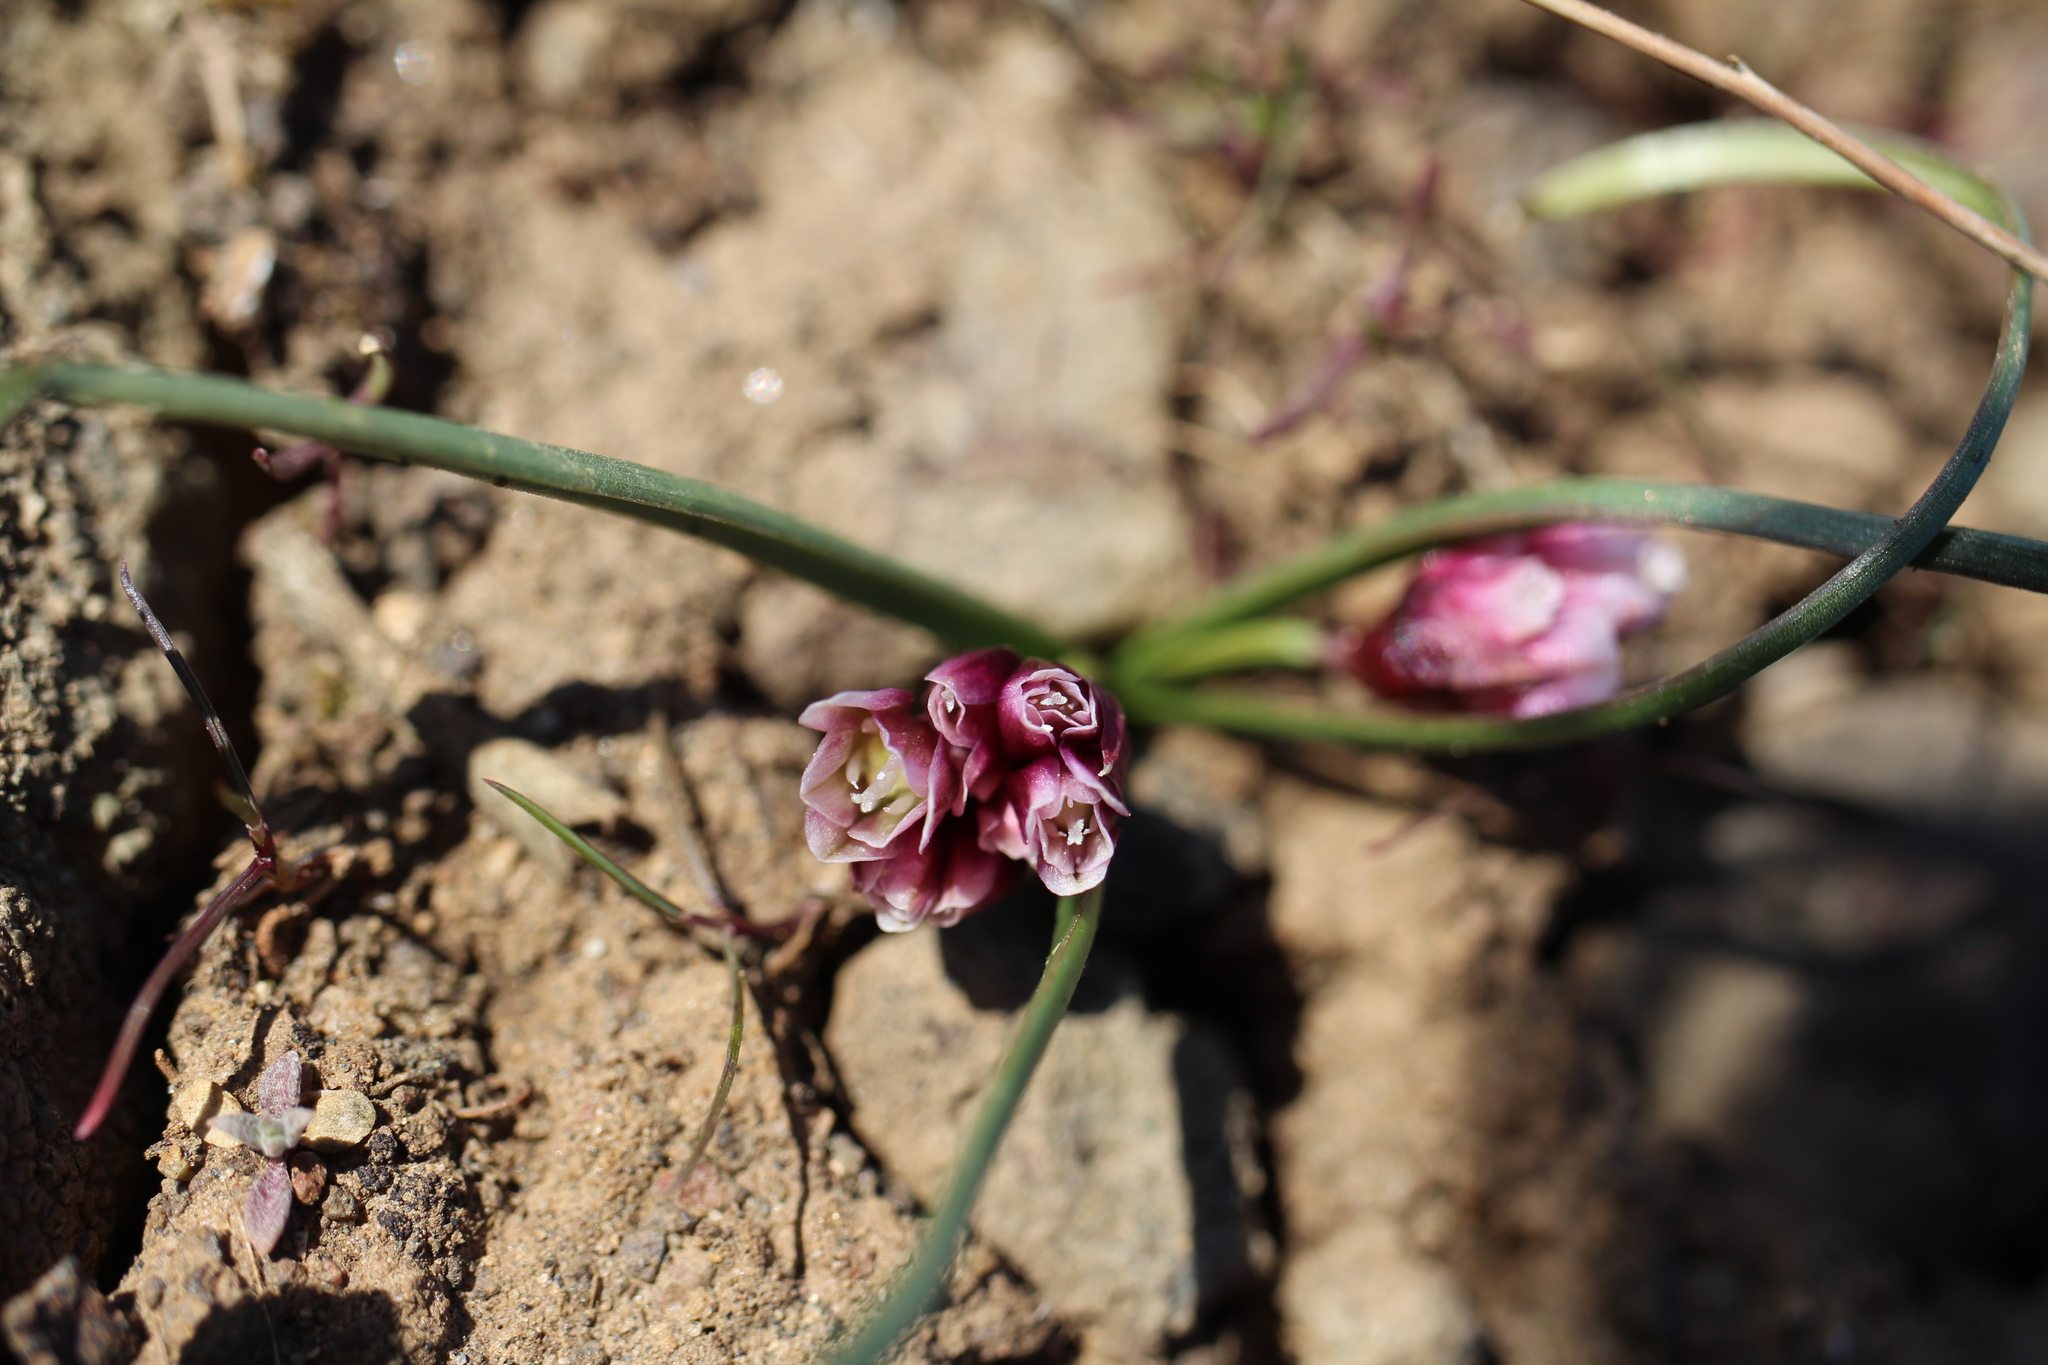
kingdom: Plantae
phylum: Tracheophyta
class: Liliopsida
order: Asparagales
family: Amaryllidaceae
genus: Allium
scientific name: Allium scilloides
